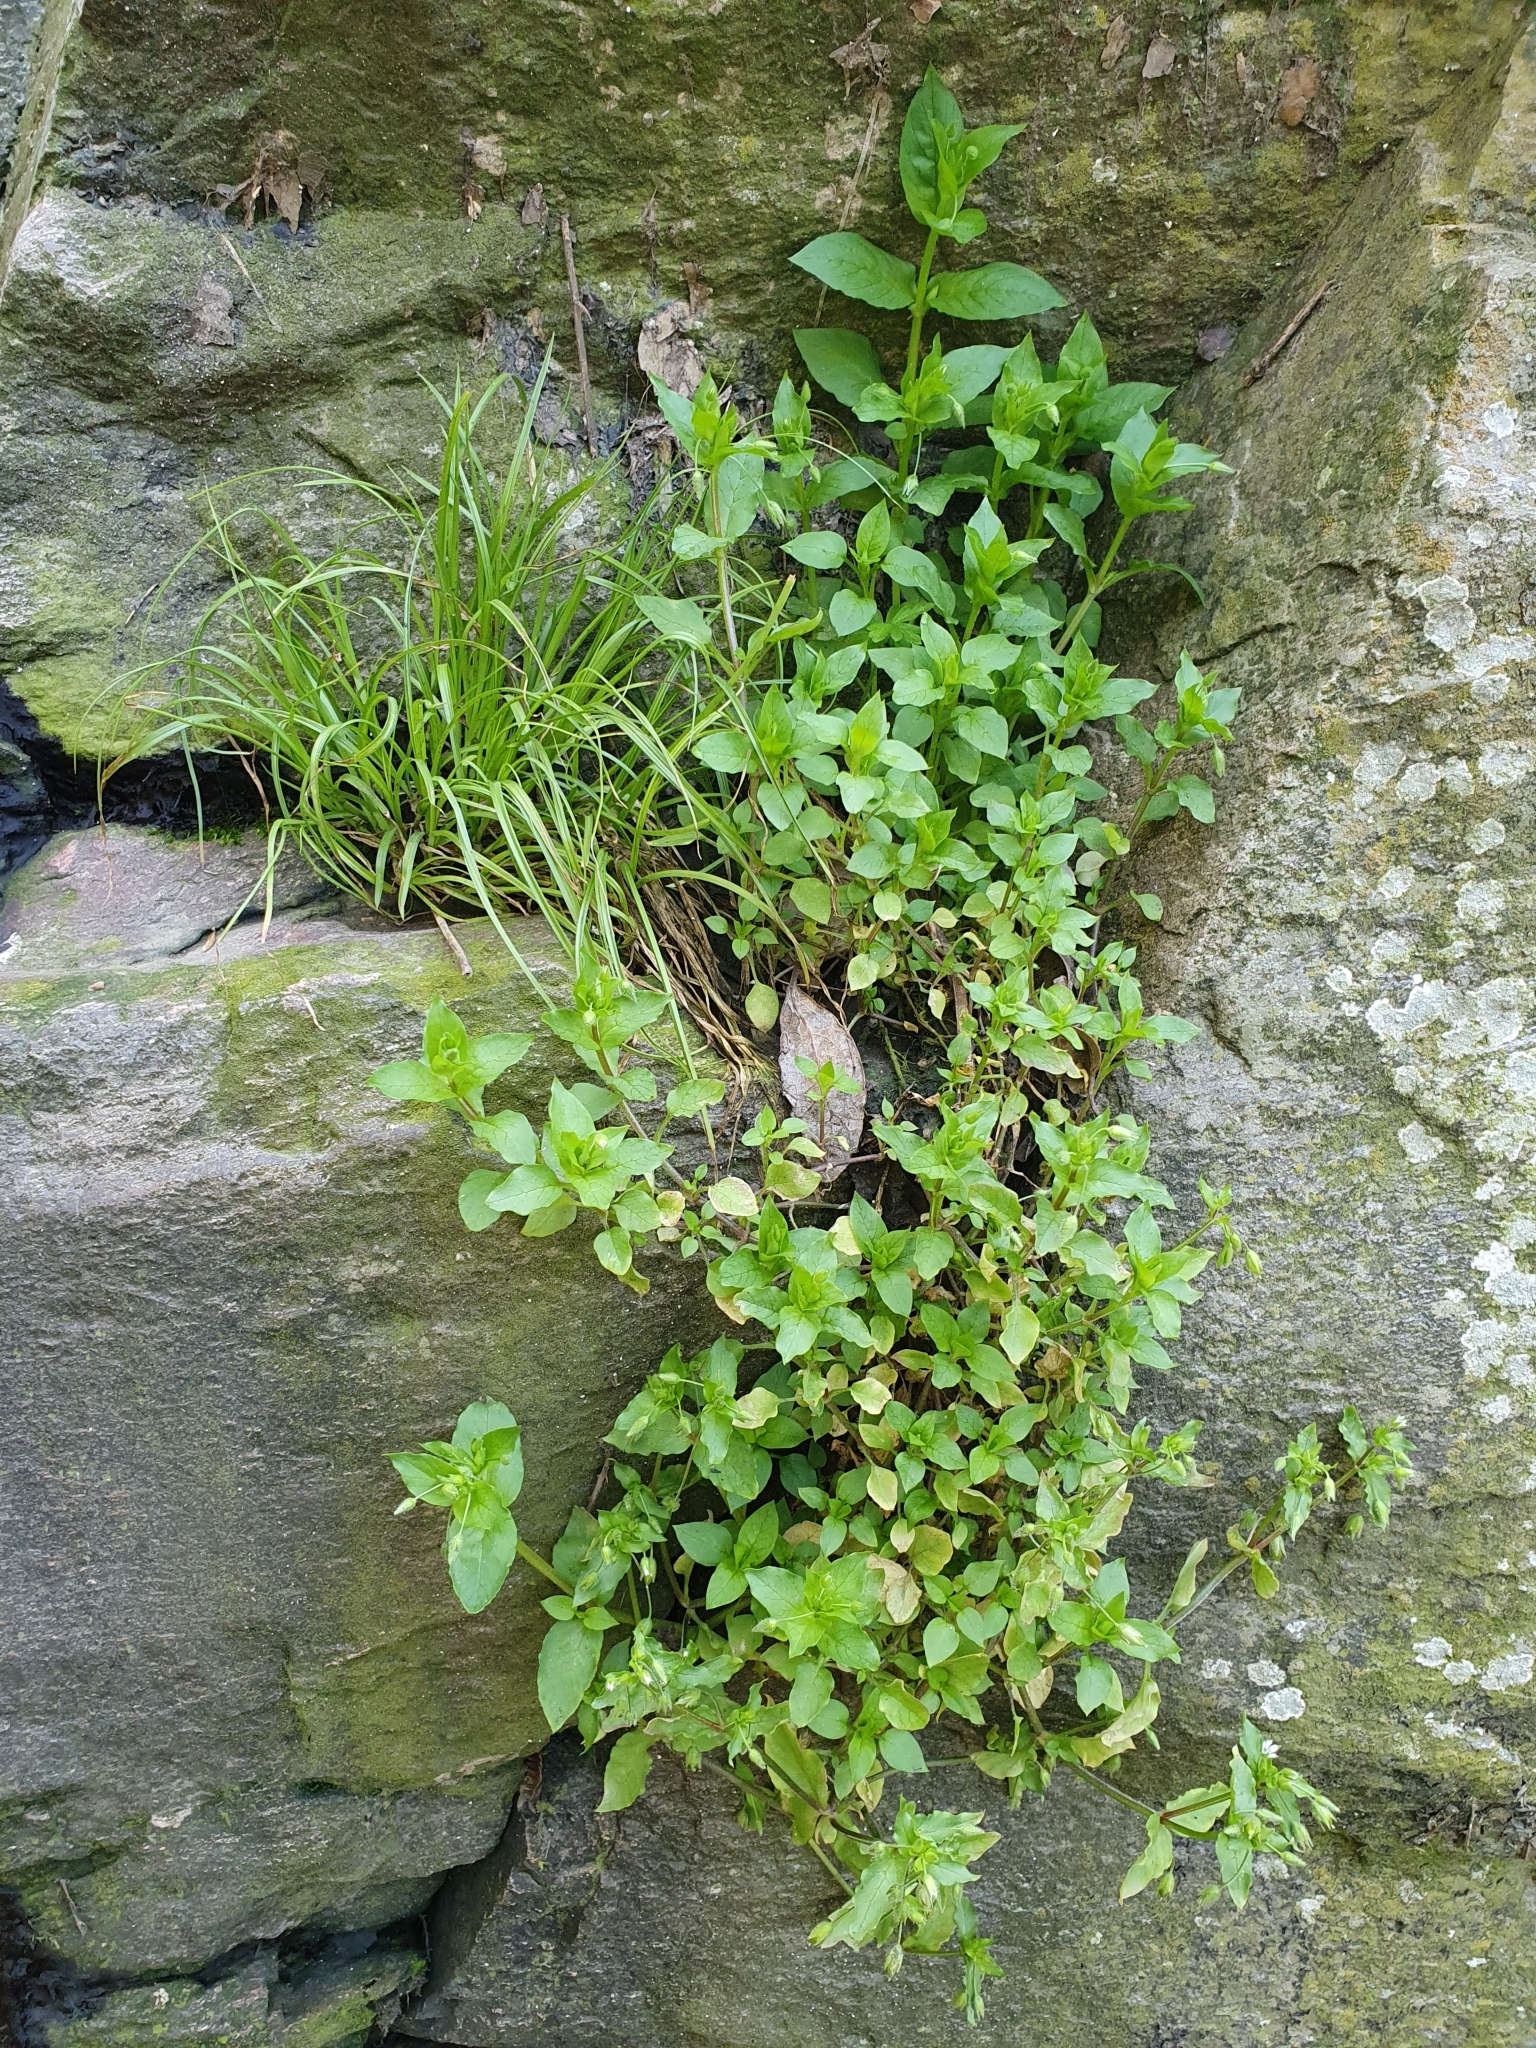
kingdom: Plantae
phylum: Tracheophyta
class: Magnoliopsida
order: Caryophyllales
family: Caryophyllaceae
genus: Stellaria
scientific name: Stellaria media
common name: Common chickweed
